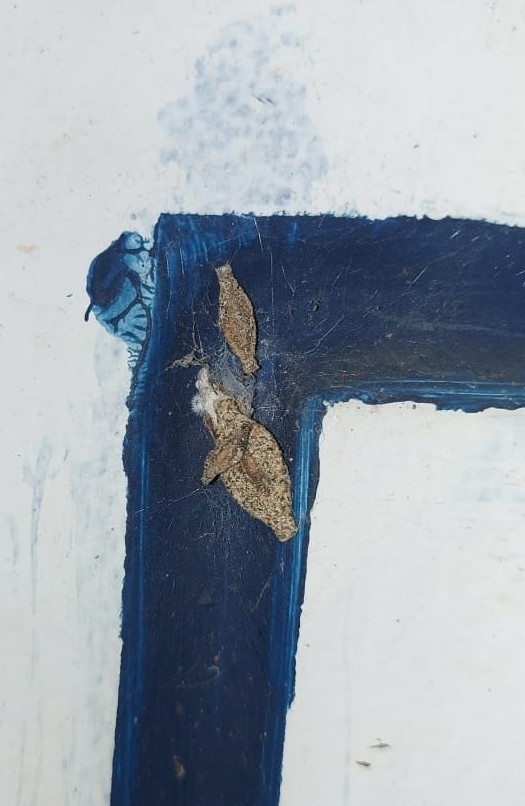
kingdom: Animalia
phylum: Arthropoda
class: Insecta
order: Lepidoptera
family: Tineidae
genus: Phereoeca
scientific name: Phereoeca uterella
